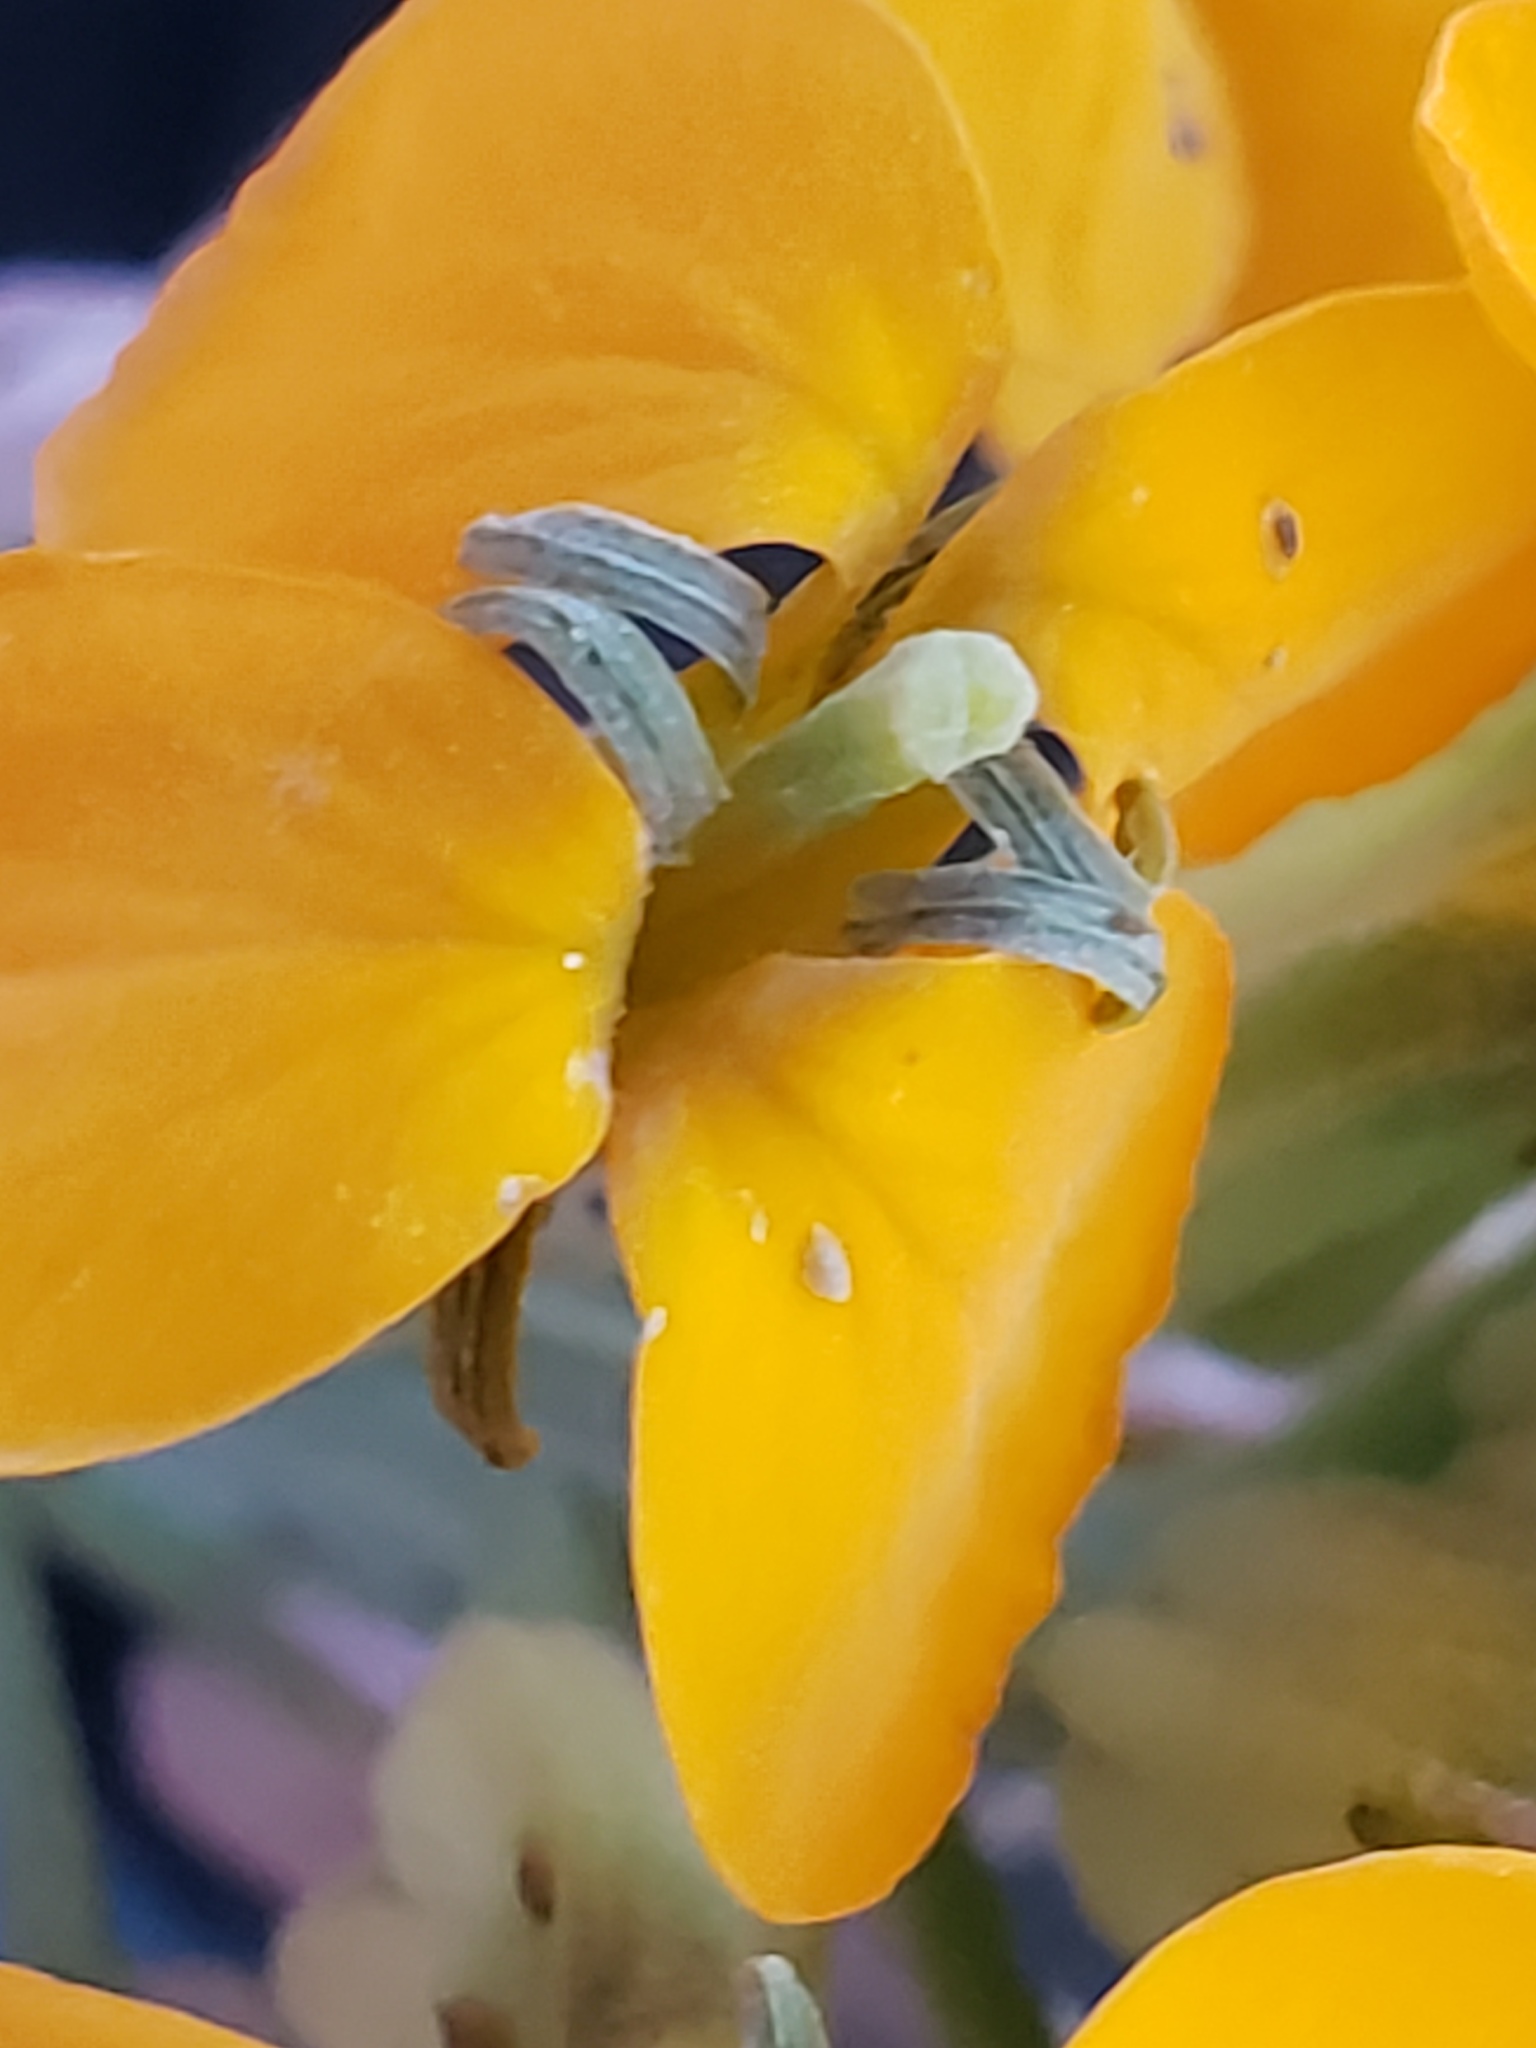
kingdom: Plantae
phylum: Tracheophyta
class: Magnoliopsida
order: Brassicales
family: Brassicaceae
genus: Erysimum
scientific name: Erysimum capitatum
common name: Western wallflower
